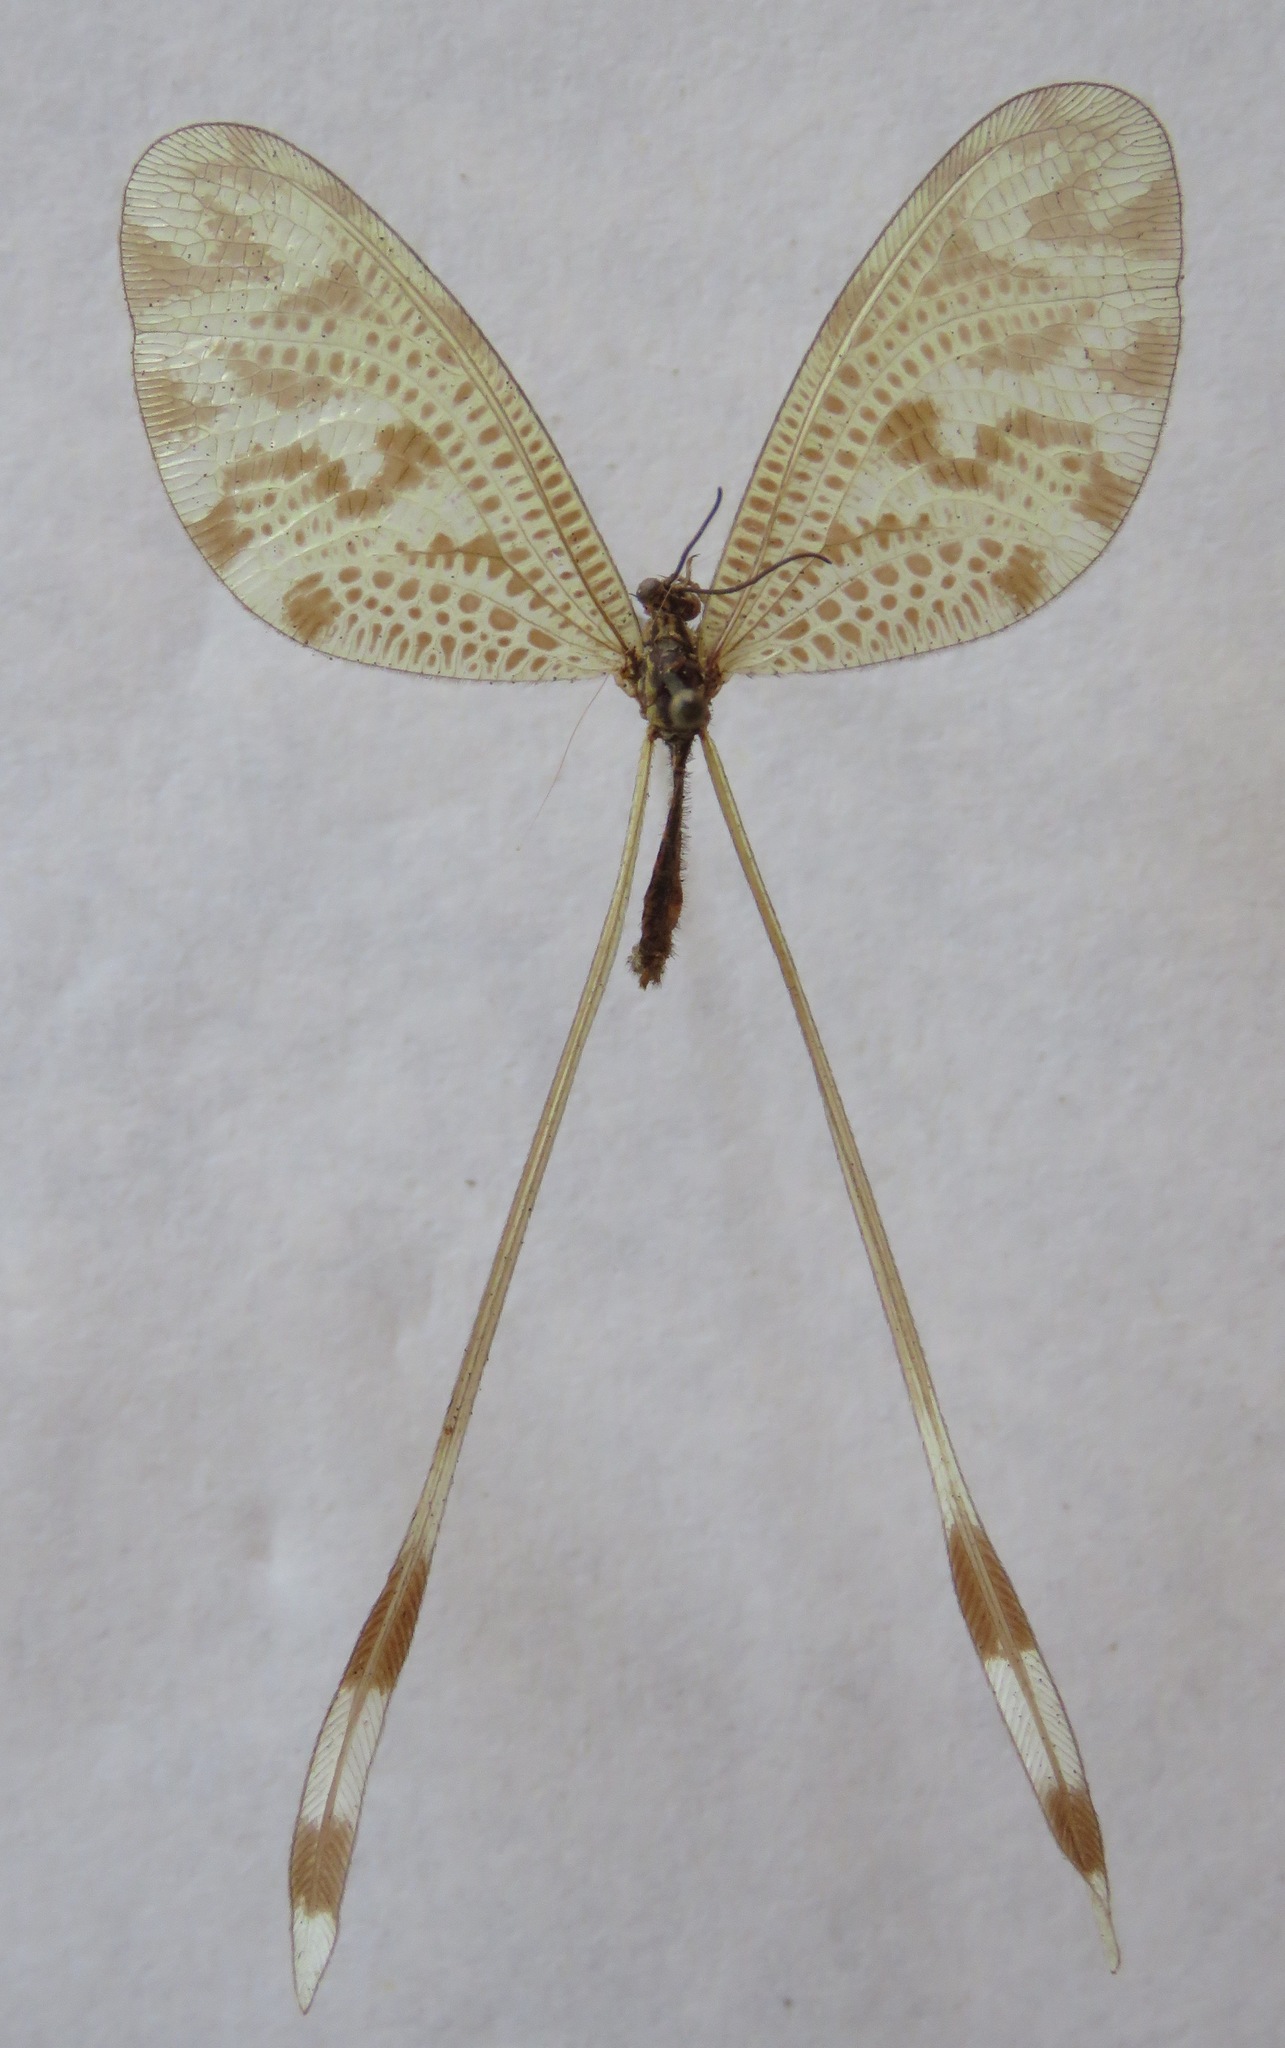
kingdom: Animalia
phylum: Arthropoda
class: Insecta
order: Neuroptera
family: Nemopteridae
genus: Nemoptera
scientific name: Nemoptera coa
